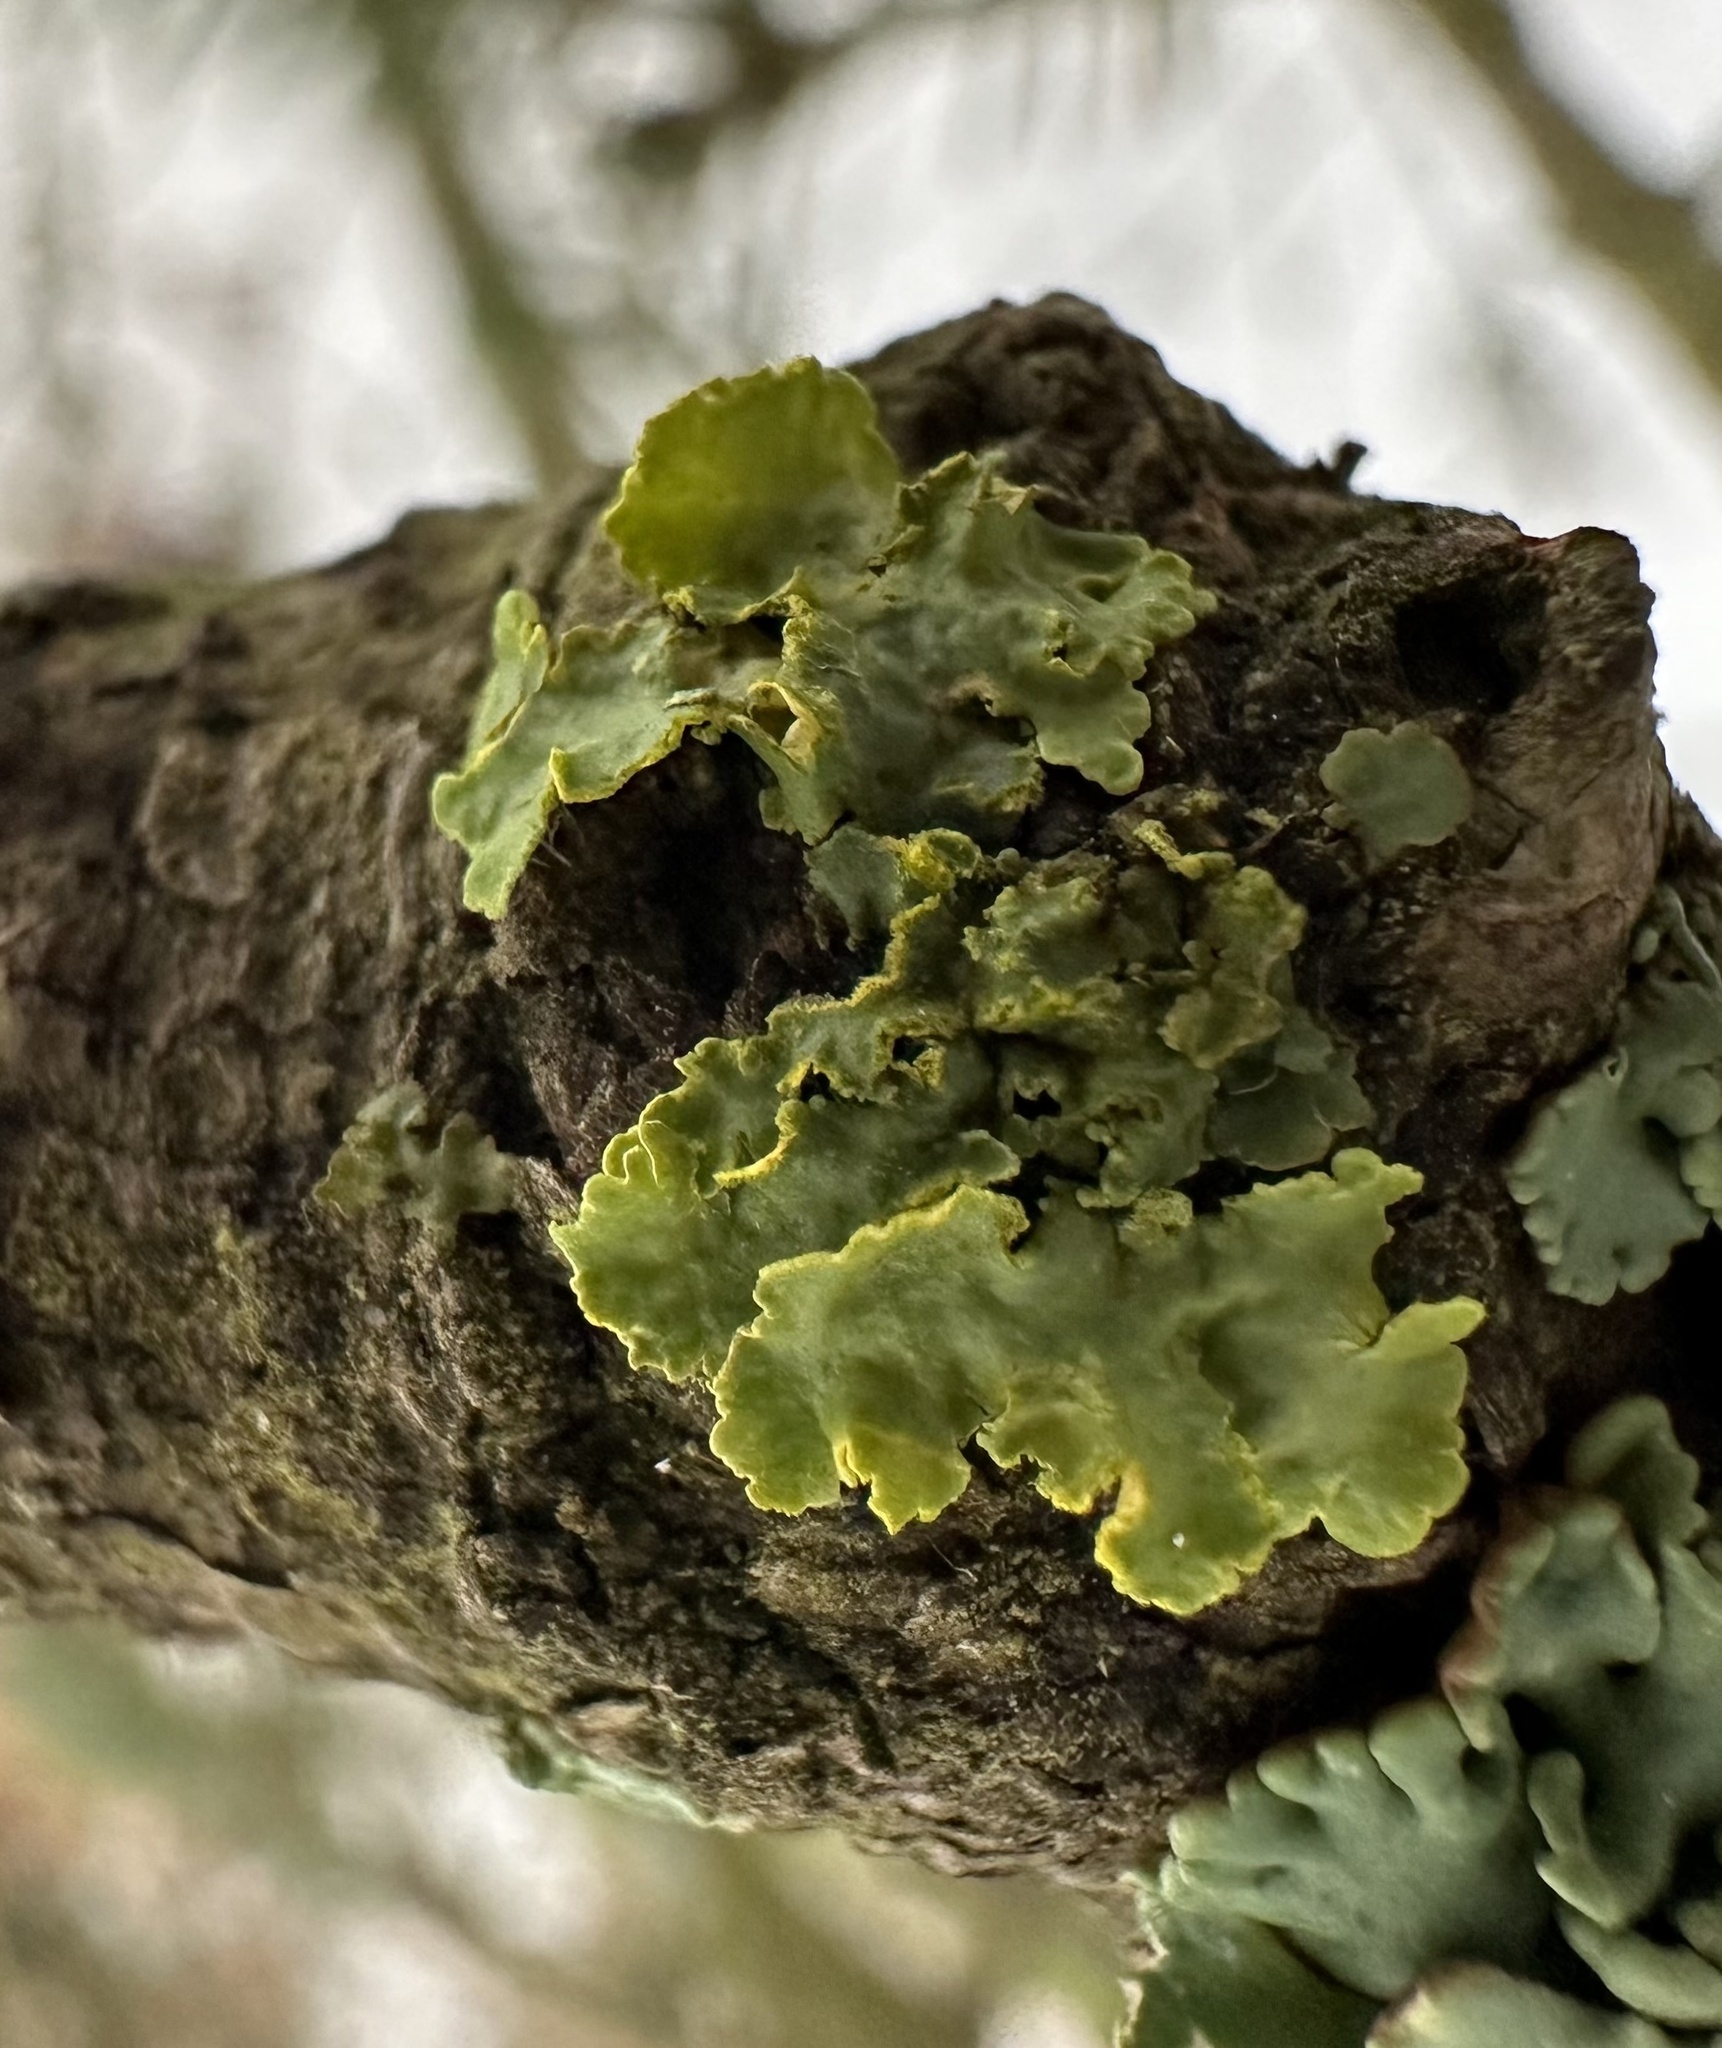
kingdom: Fungi
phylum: Ascomycota
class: Lecanoromycetes
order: Lecanorales
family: Parmeliaceae
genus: Vulpicida
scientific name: Vulpicida pinastri
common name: Powdered sunshine lichen
